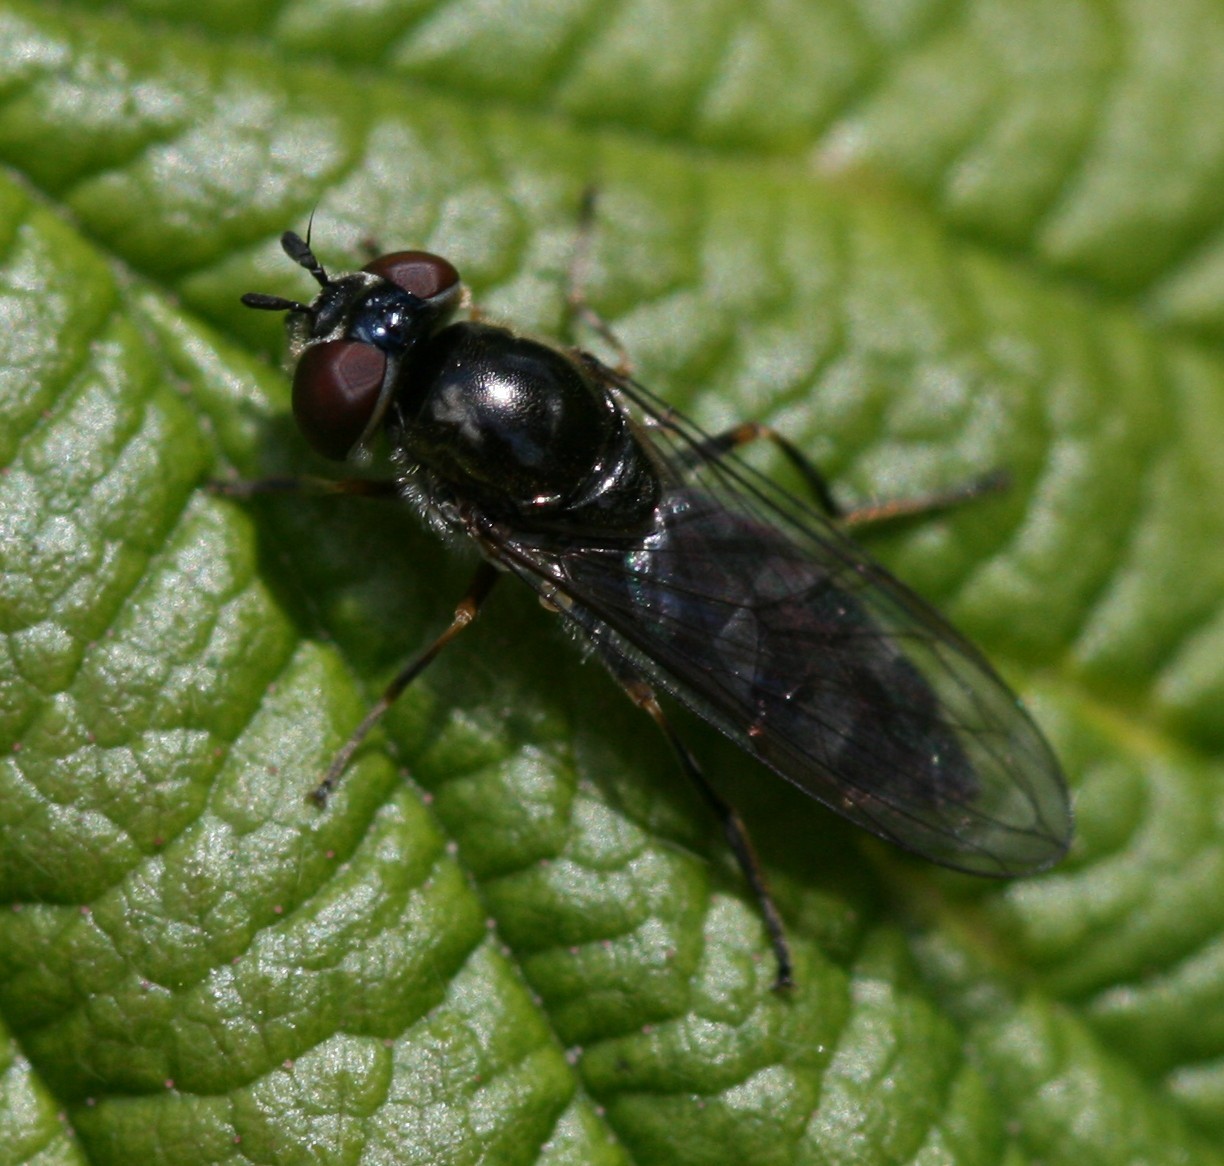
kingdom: Animalia
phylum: Arthropoda
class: Insecta
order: Diptera
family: Syrphidae
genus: Platycheirus
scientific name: Platycheirus albimanus
